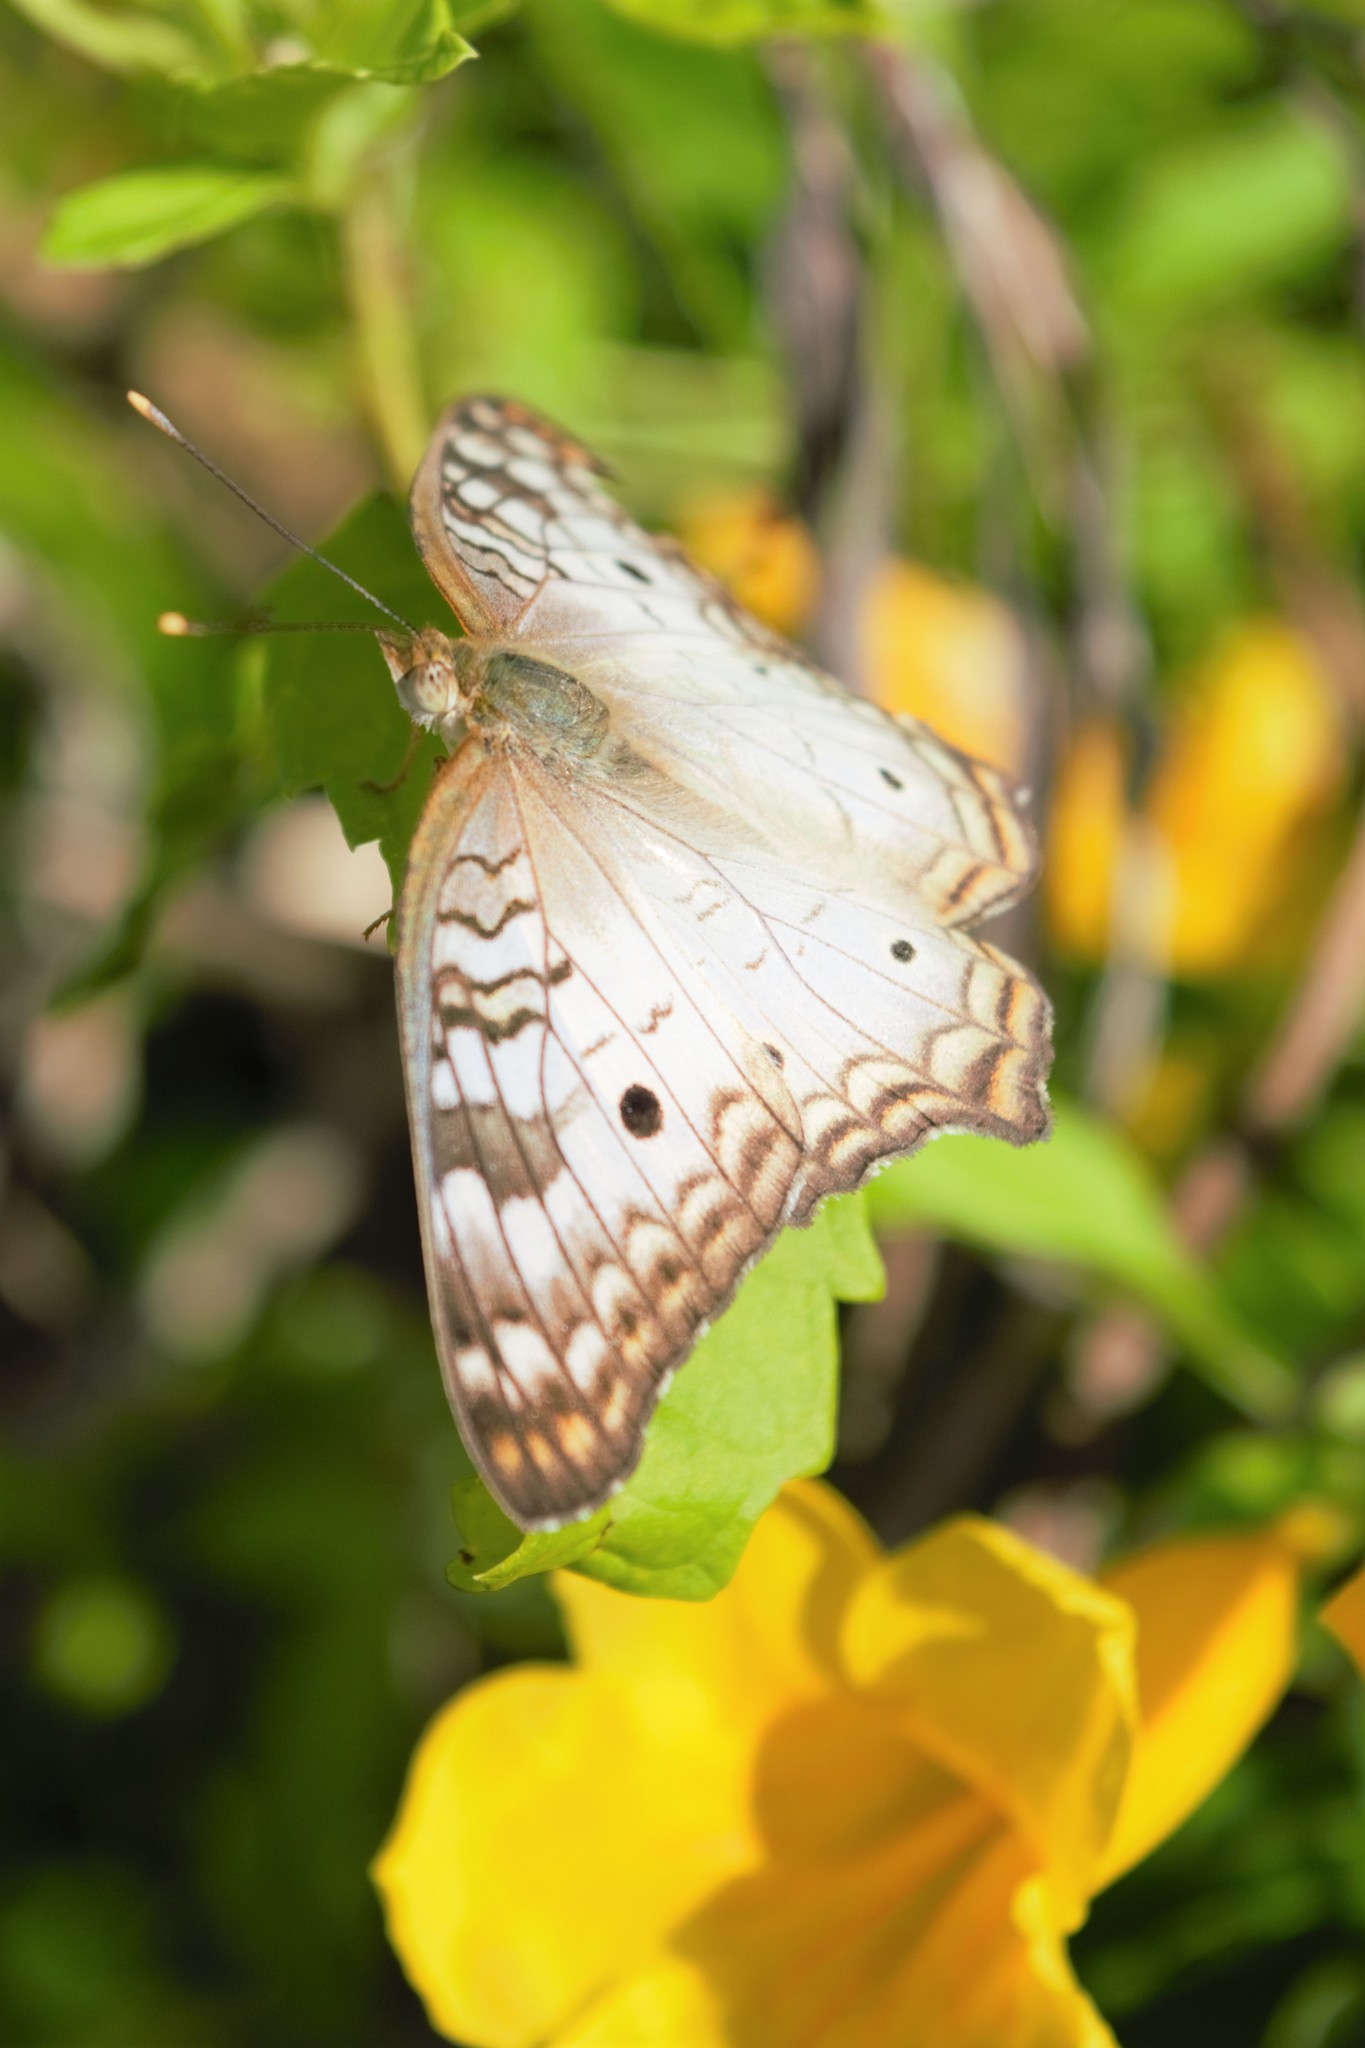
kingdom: Animalia
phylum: Arthropoda
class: Insecta
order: Lepidoptera
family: Nymphalidae
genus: Anartia
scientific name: Anartia jatrophae
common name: White peacock
